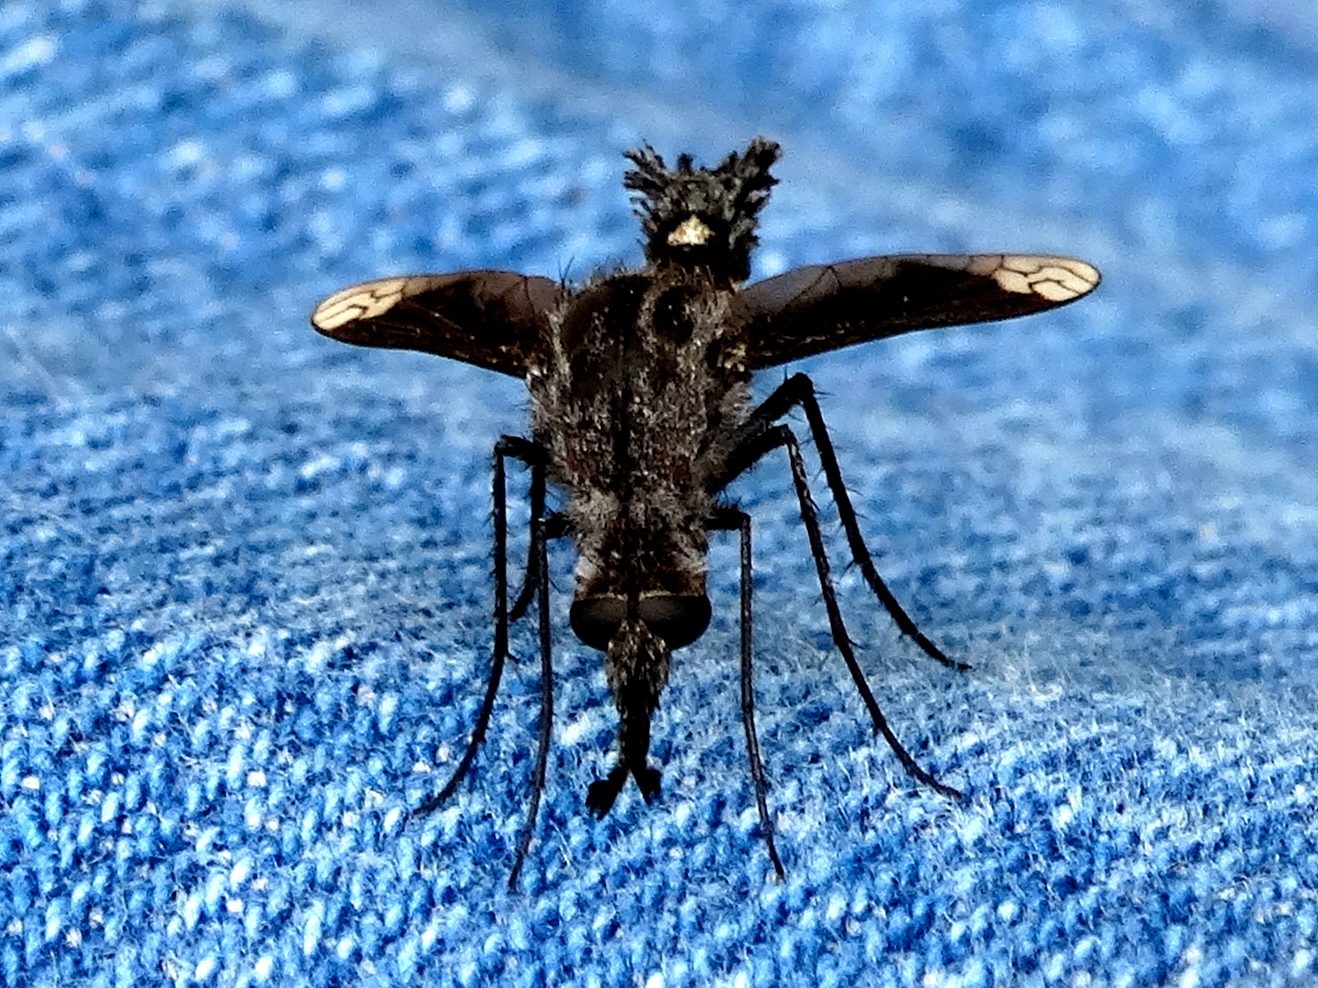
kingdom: Animalia
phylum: Arthropoda
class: Insecta
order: Diptera
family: Bombyliidae
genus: Lepidophora
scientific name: Lepidophora vetusta
